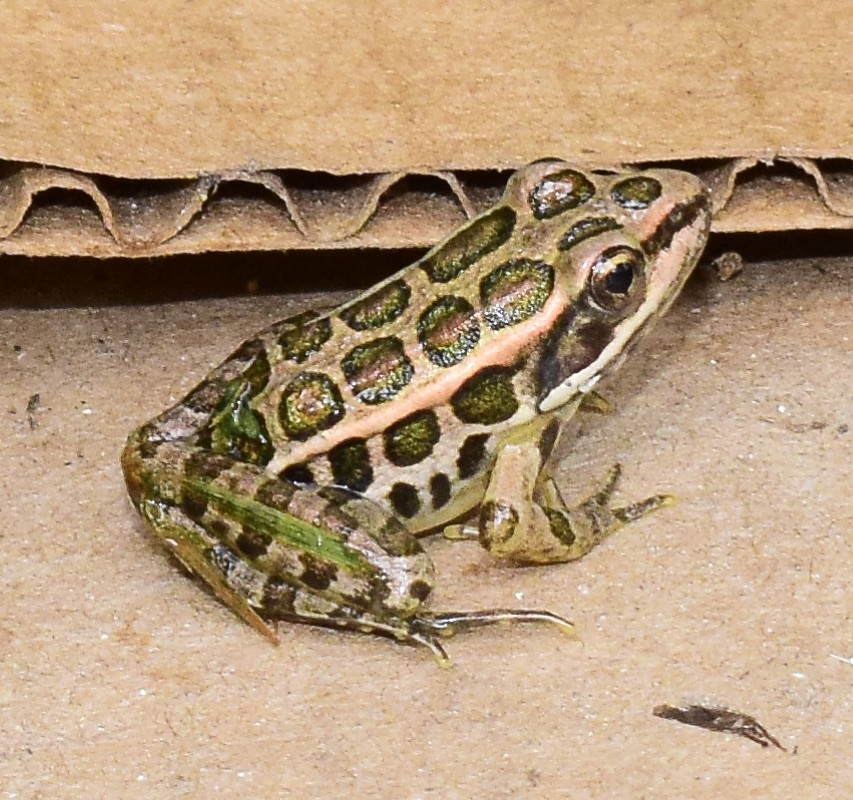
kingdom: Animalia
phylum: Chordata
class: Amphibia
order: Anura
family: Ranidae
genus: Lithobates
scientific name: Lithobates palustris
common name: Pickerel frog
